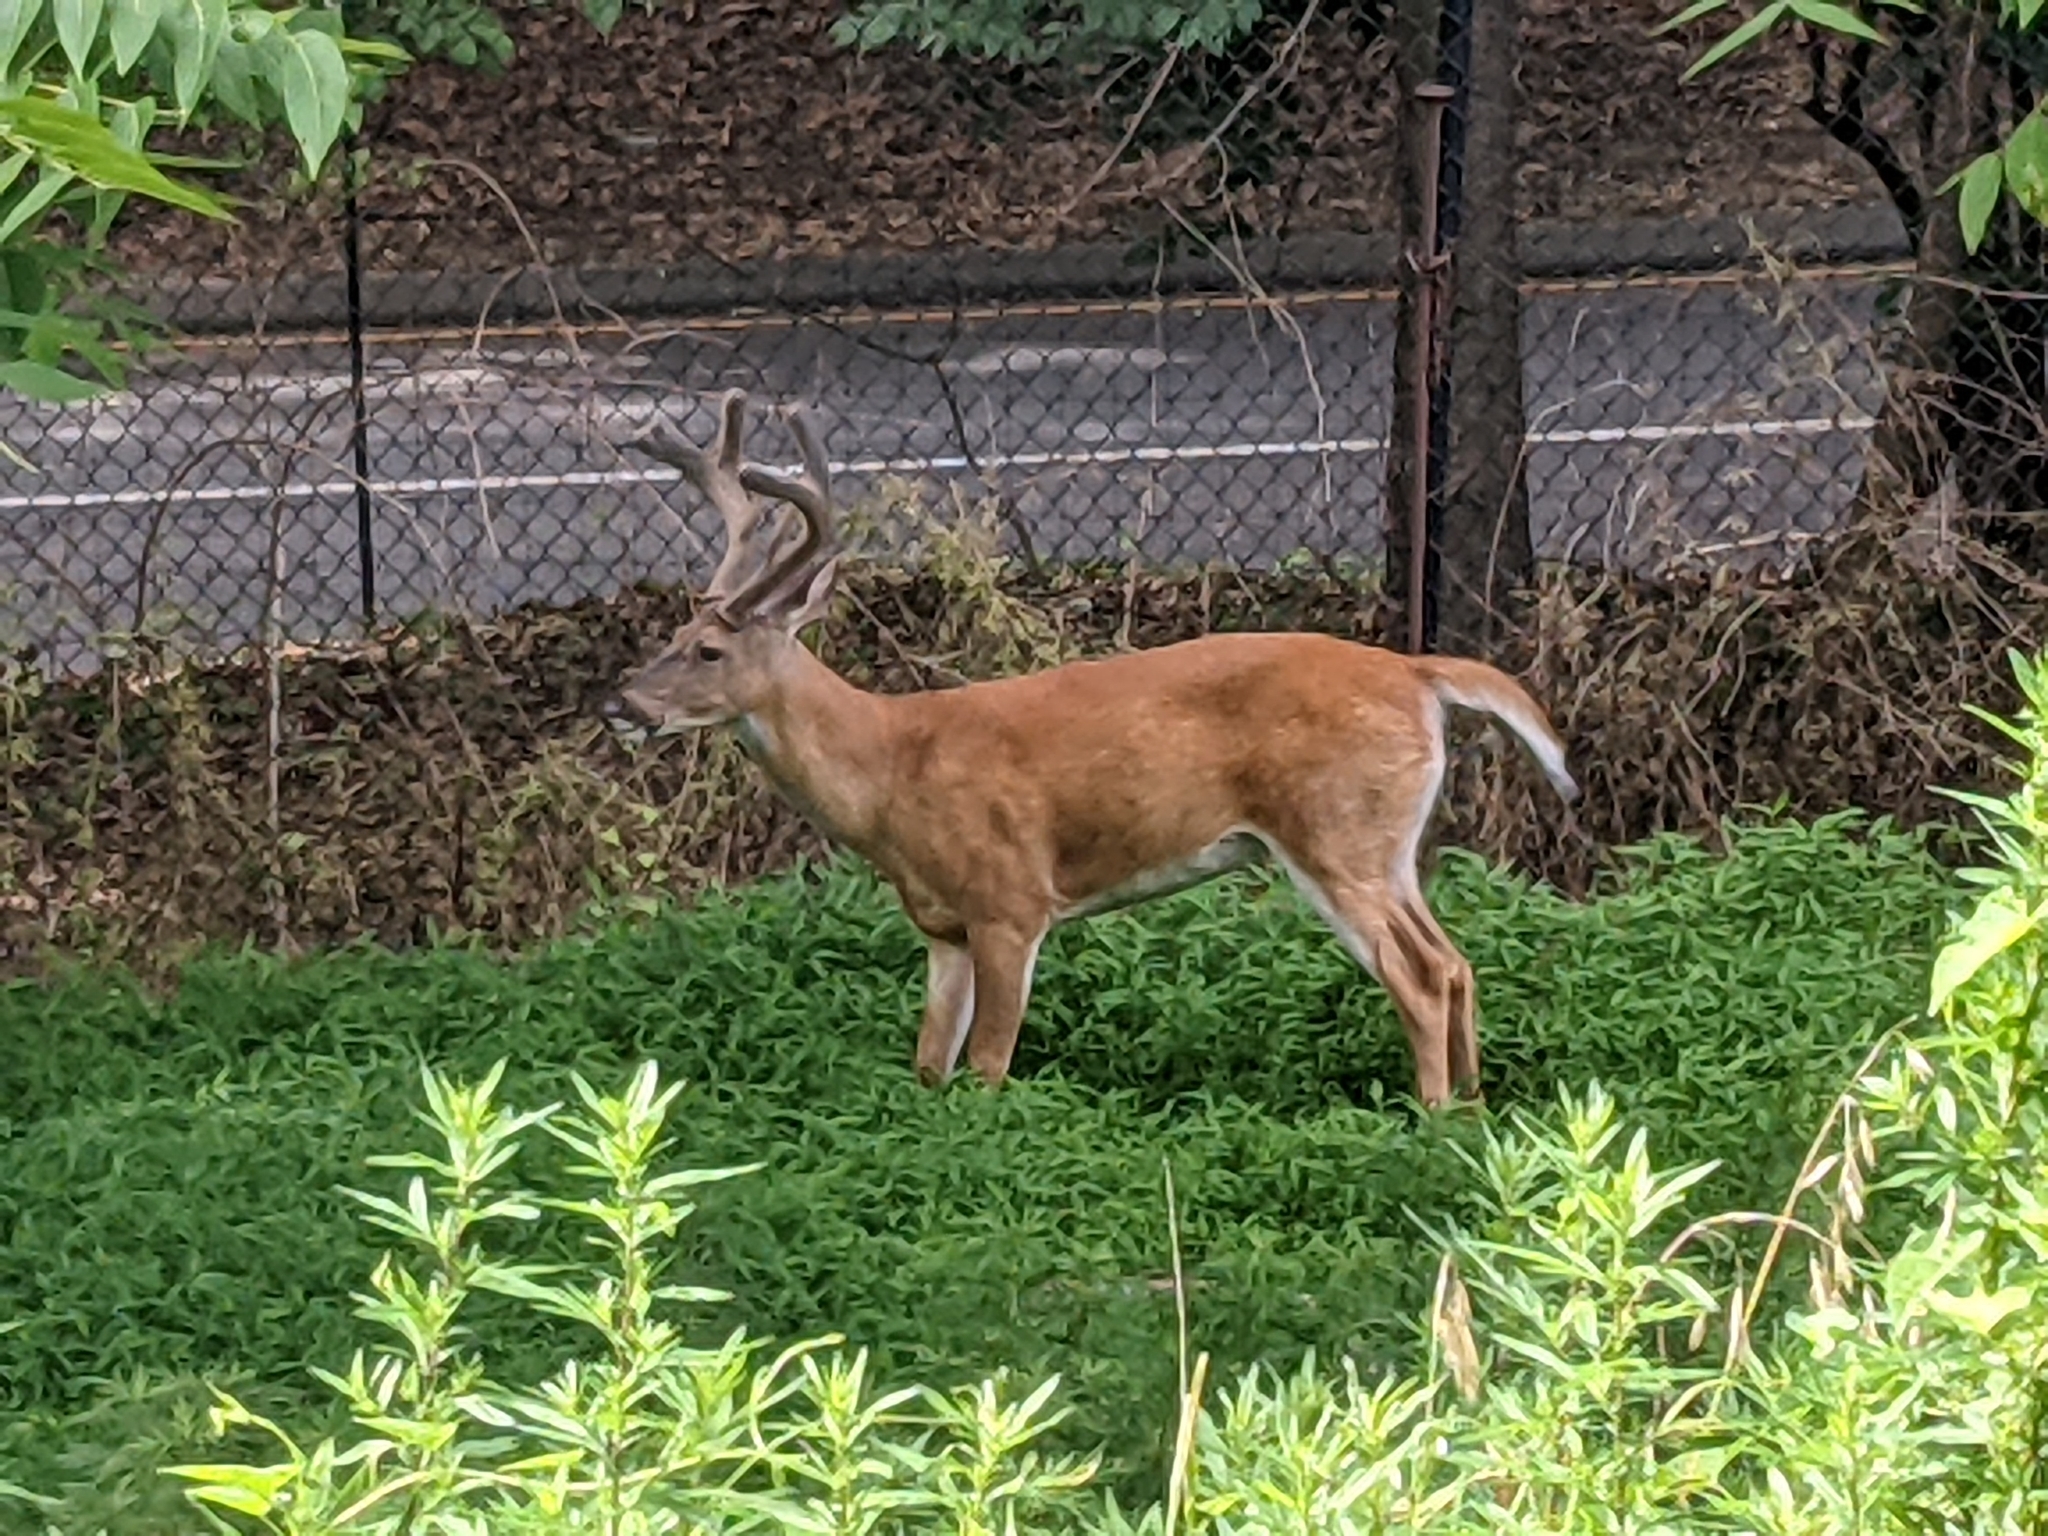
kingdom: Animalia
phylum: Chordata
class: Mammalia
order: Artiodactyla
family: Cervidae
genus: Odocoileus
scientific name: Odocoileus virginianus
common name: White-tailed deer
